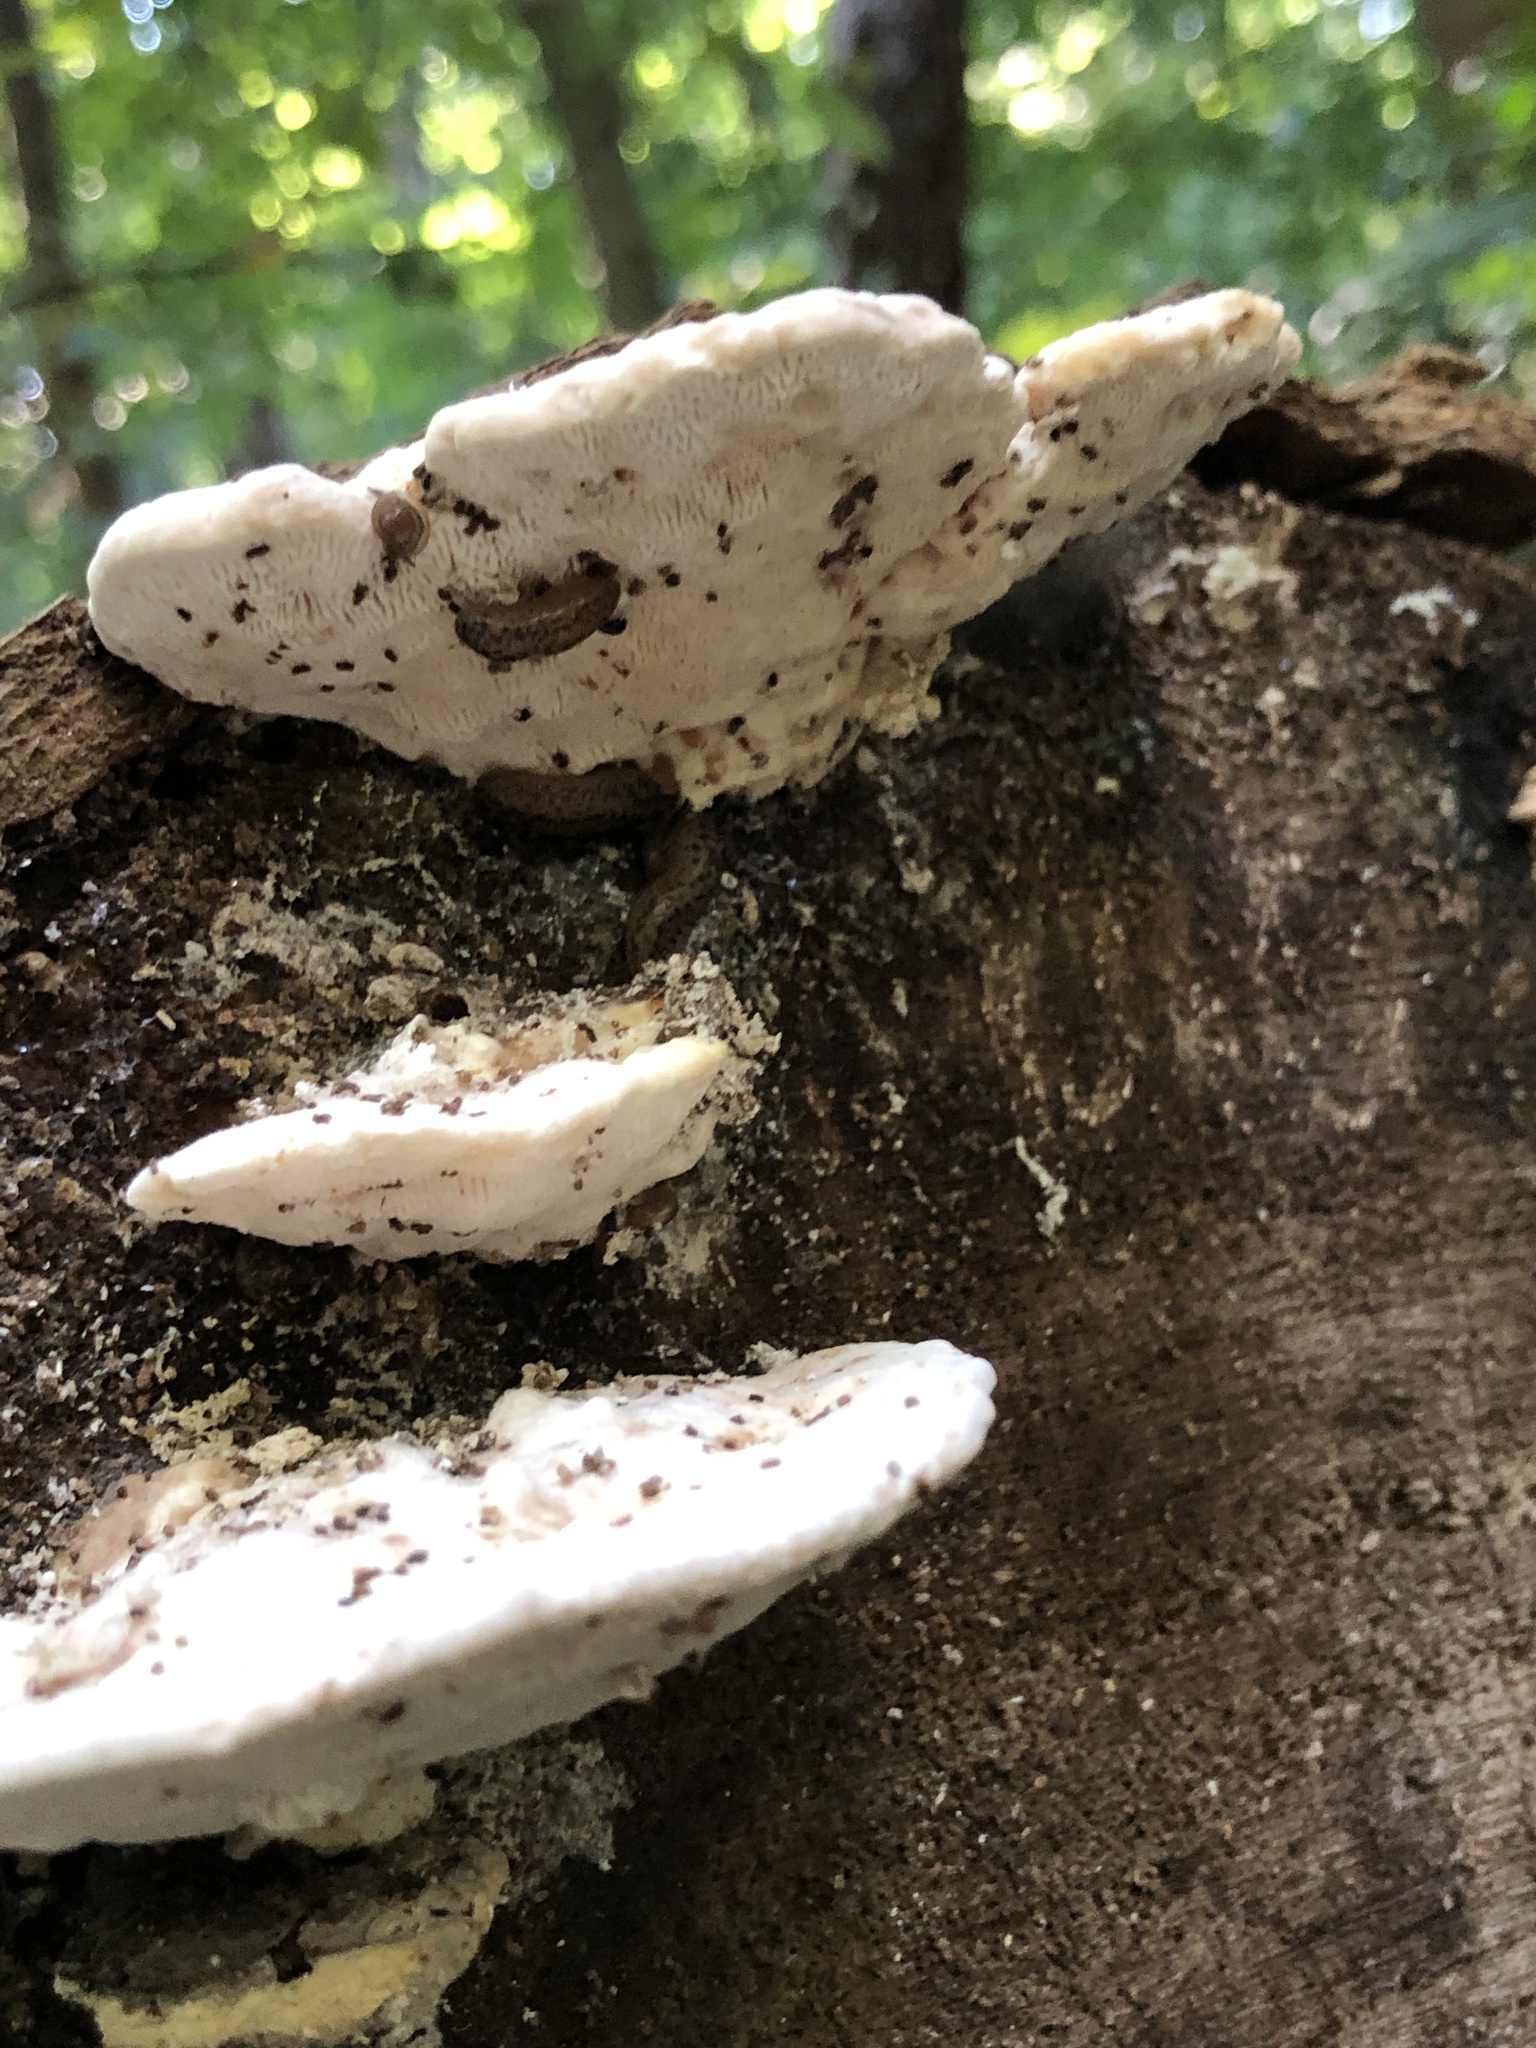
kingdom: Fungi
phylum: Basidiomycota
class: Agaricomycetes
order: Polyporales
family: Polyporaceae
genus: Trametes
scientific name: Trametes gibbosa
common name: Lumpy bracket
